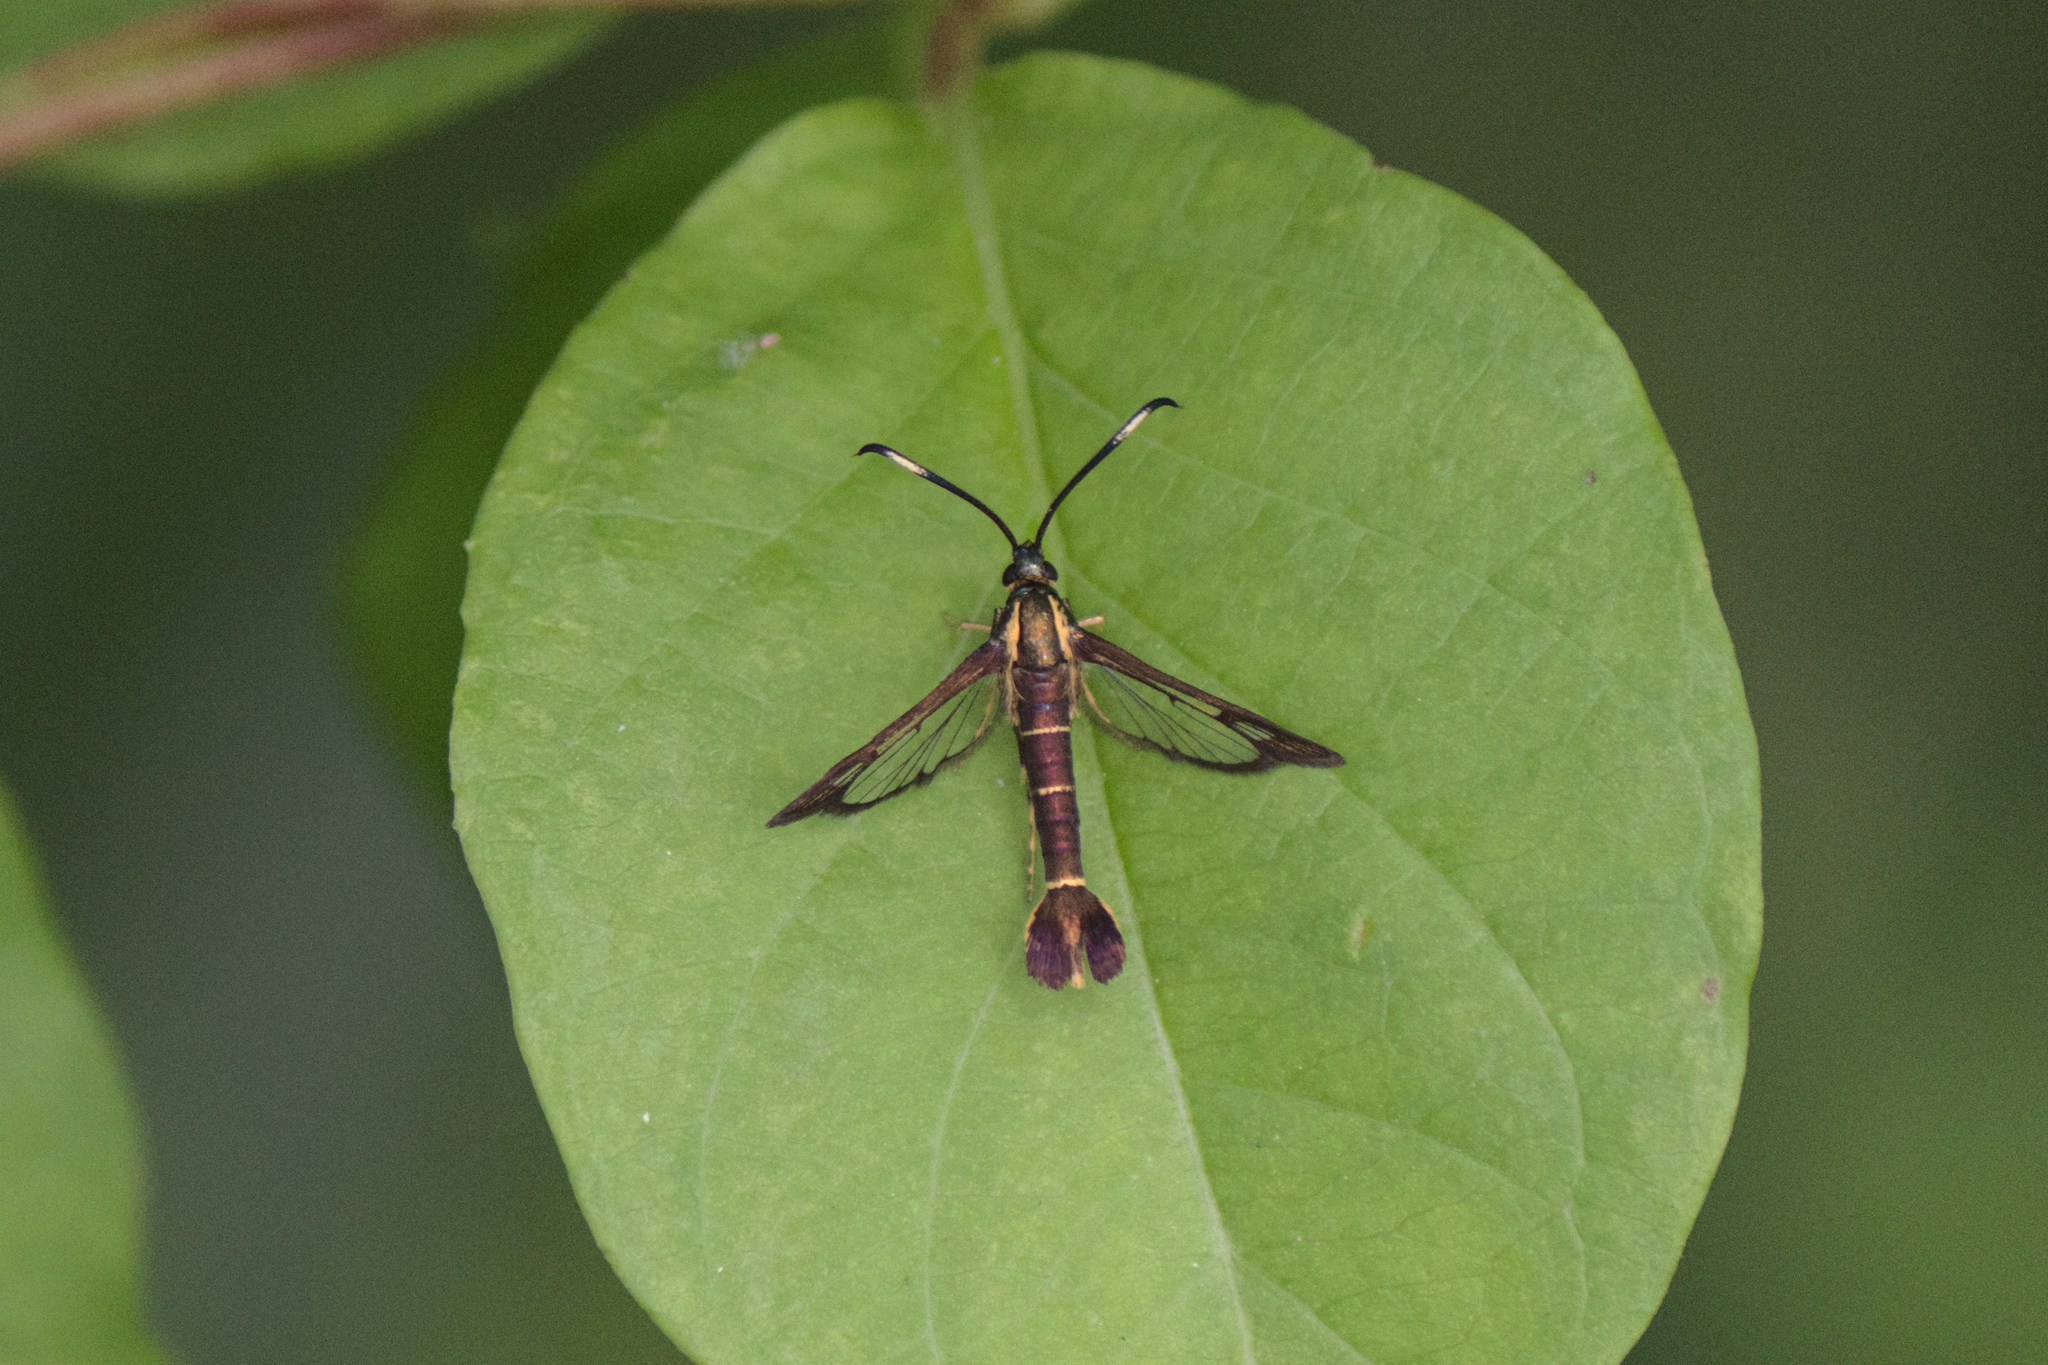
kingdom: Animalia
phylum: Arthropoda
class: Insecta
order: Lepidoptera
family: Sesiidae
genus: Carmenta
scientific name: Carmenta bassiformis
